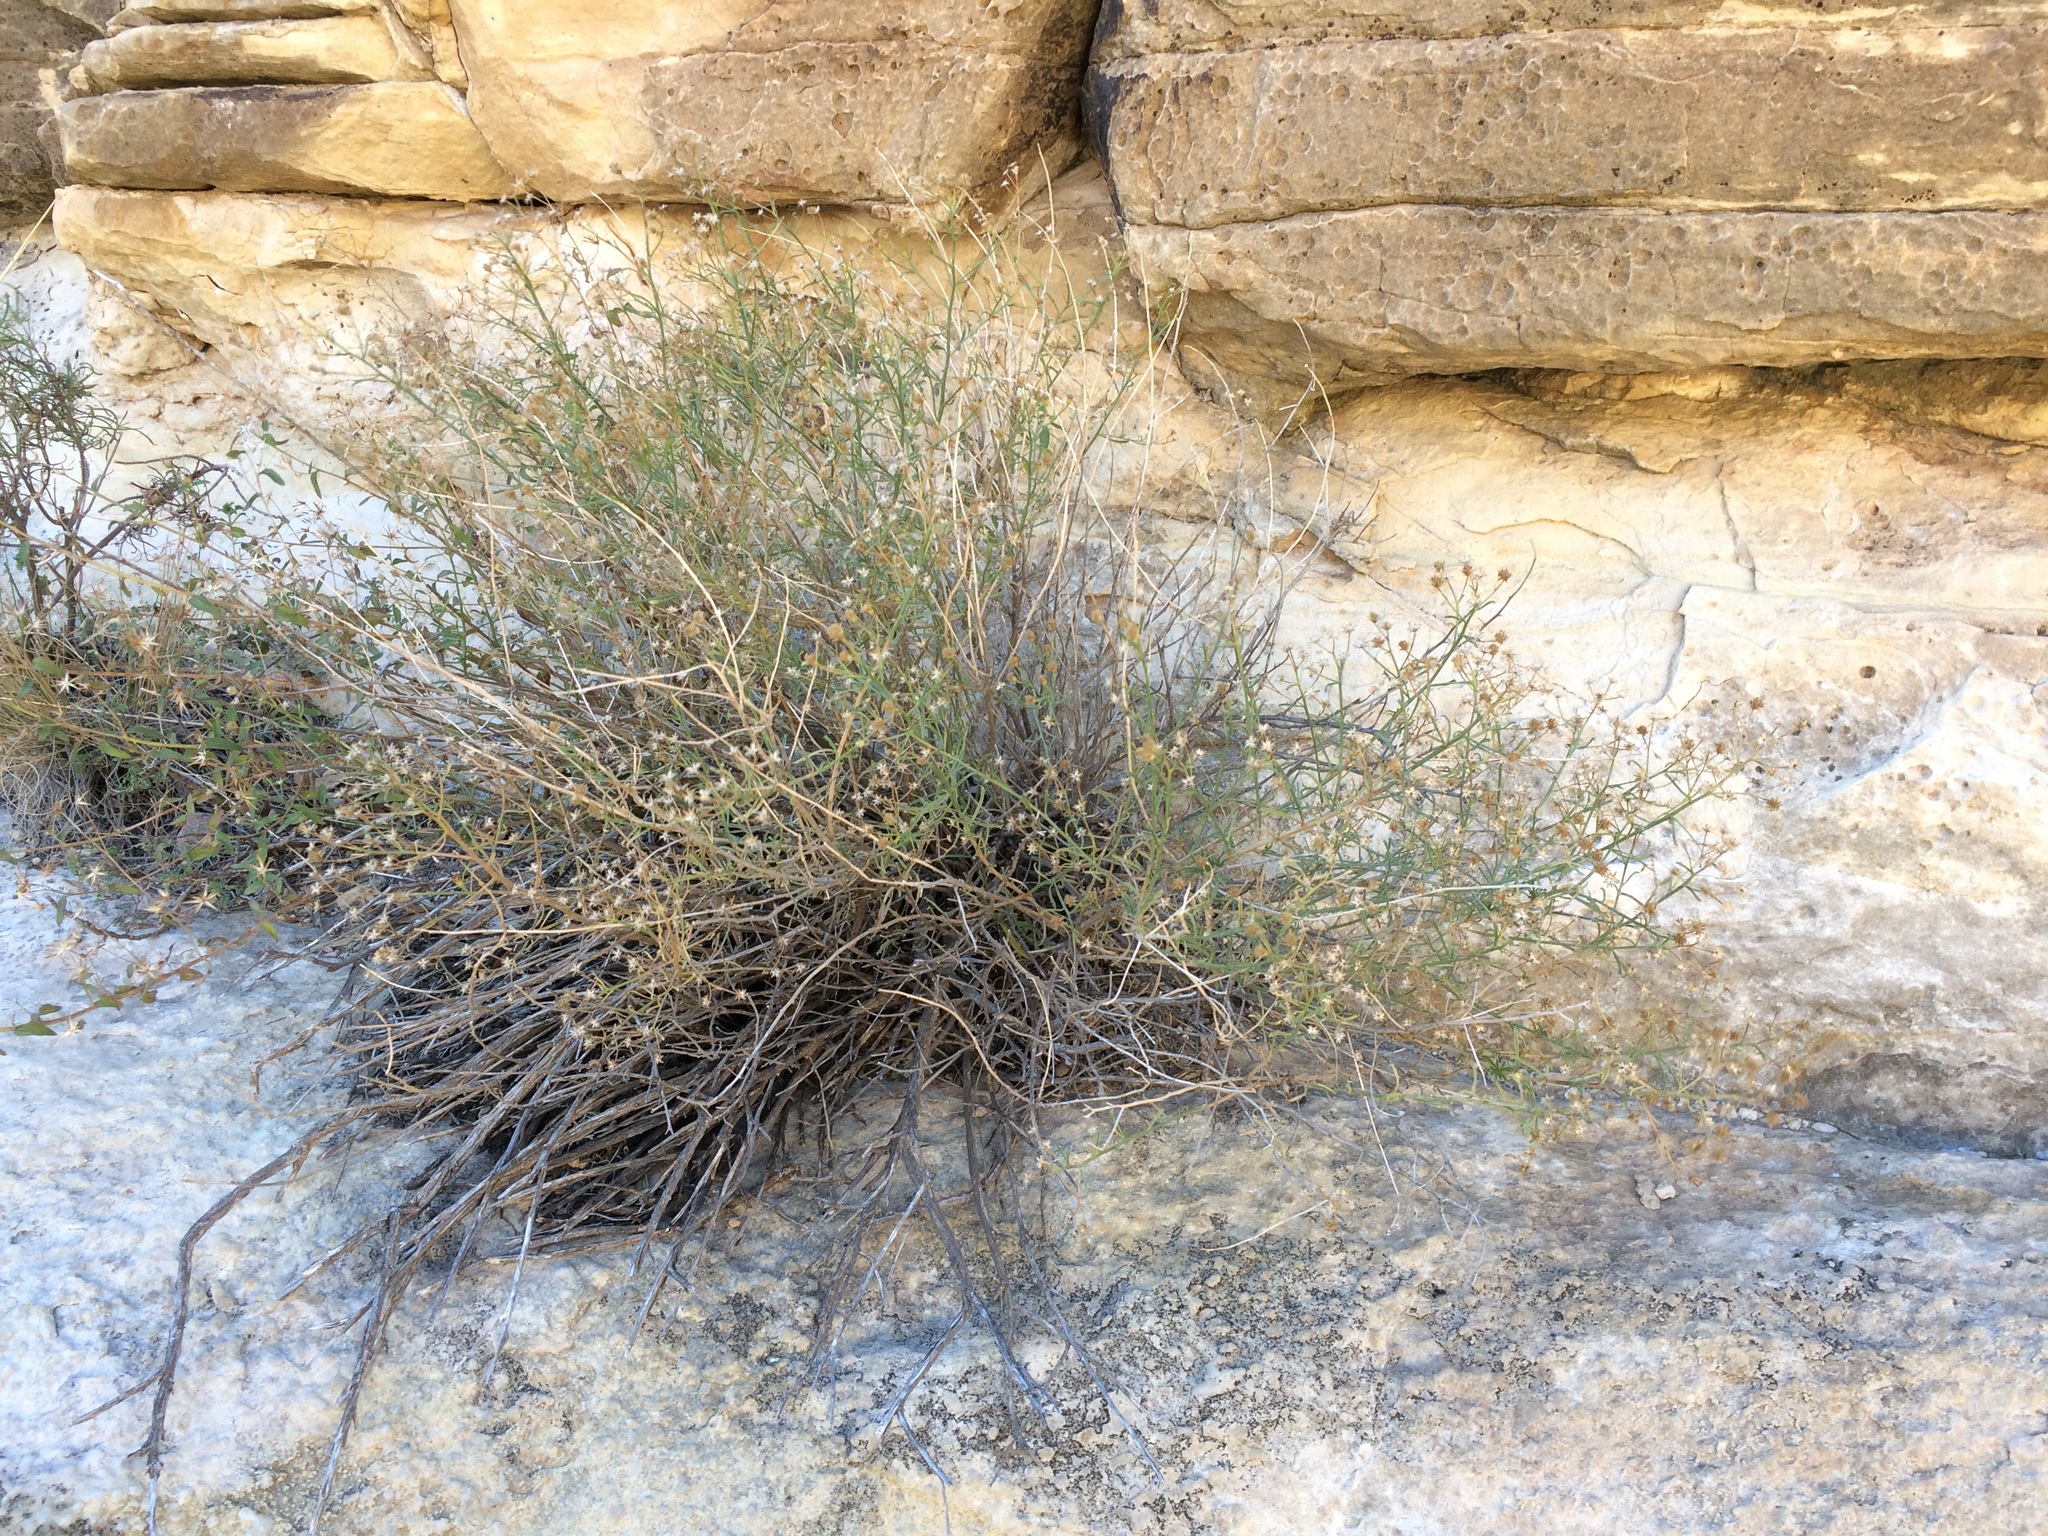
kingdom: Plantae
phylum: Tracheophyta
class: Magnoliopsida
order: Asterales
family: Asteraceae
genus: Baccharis
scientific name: Baccharis havardii
